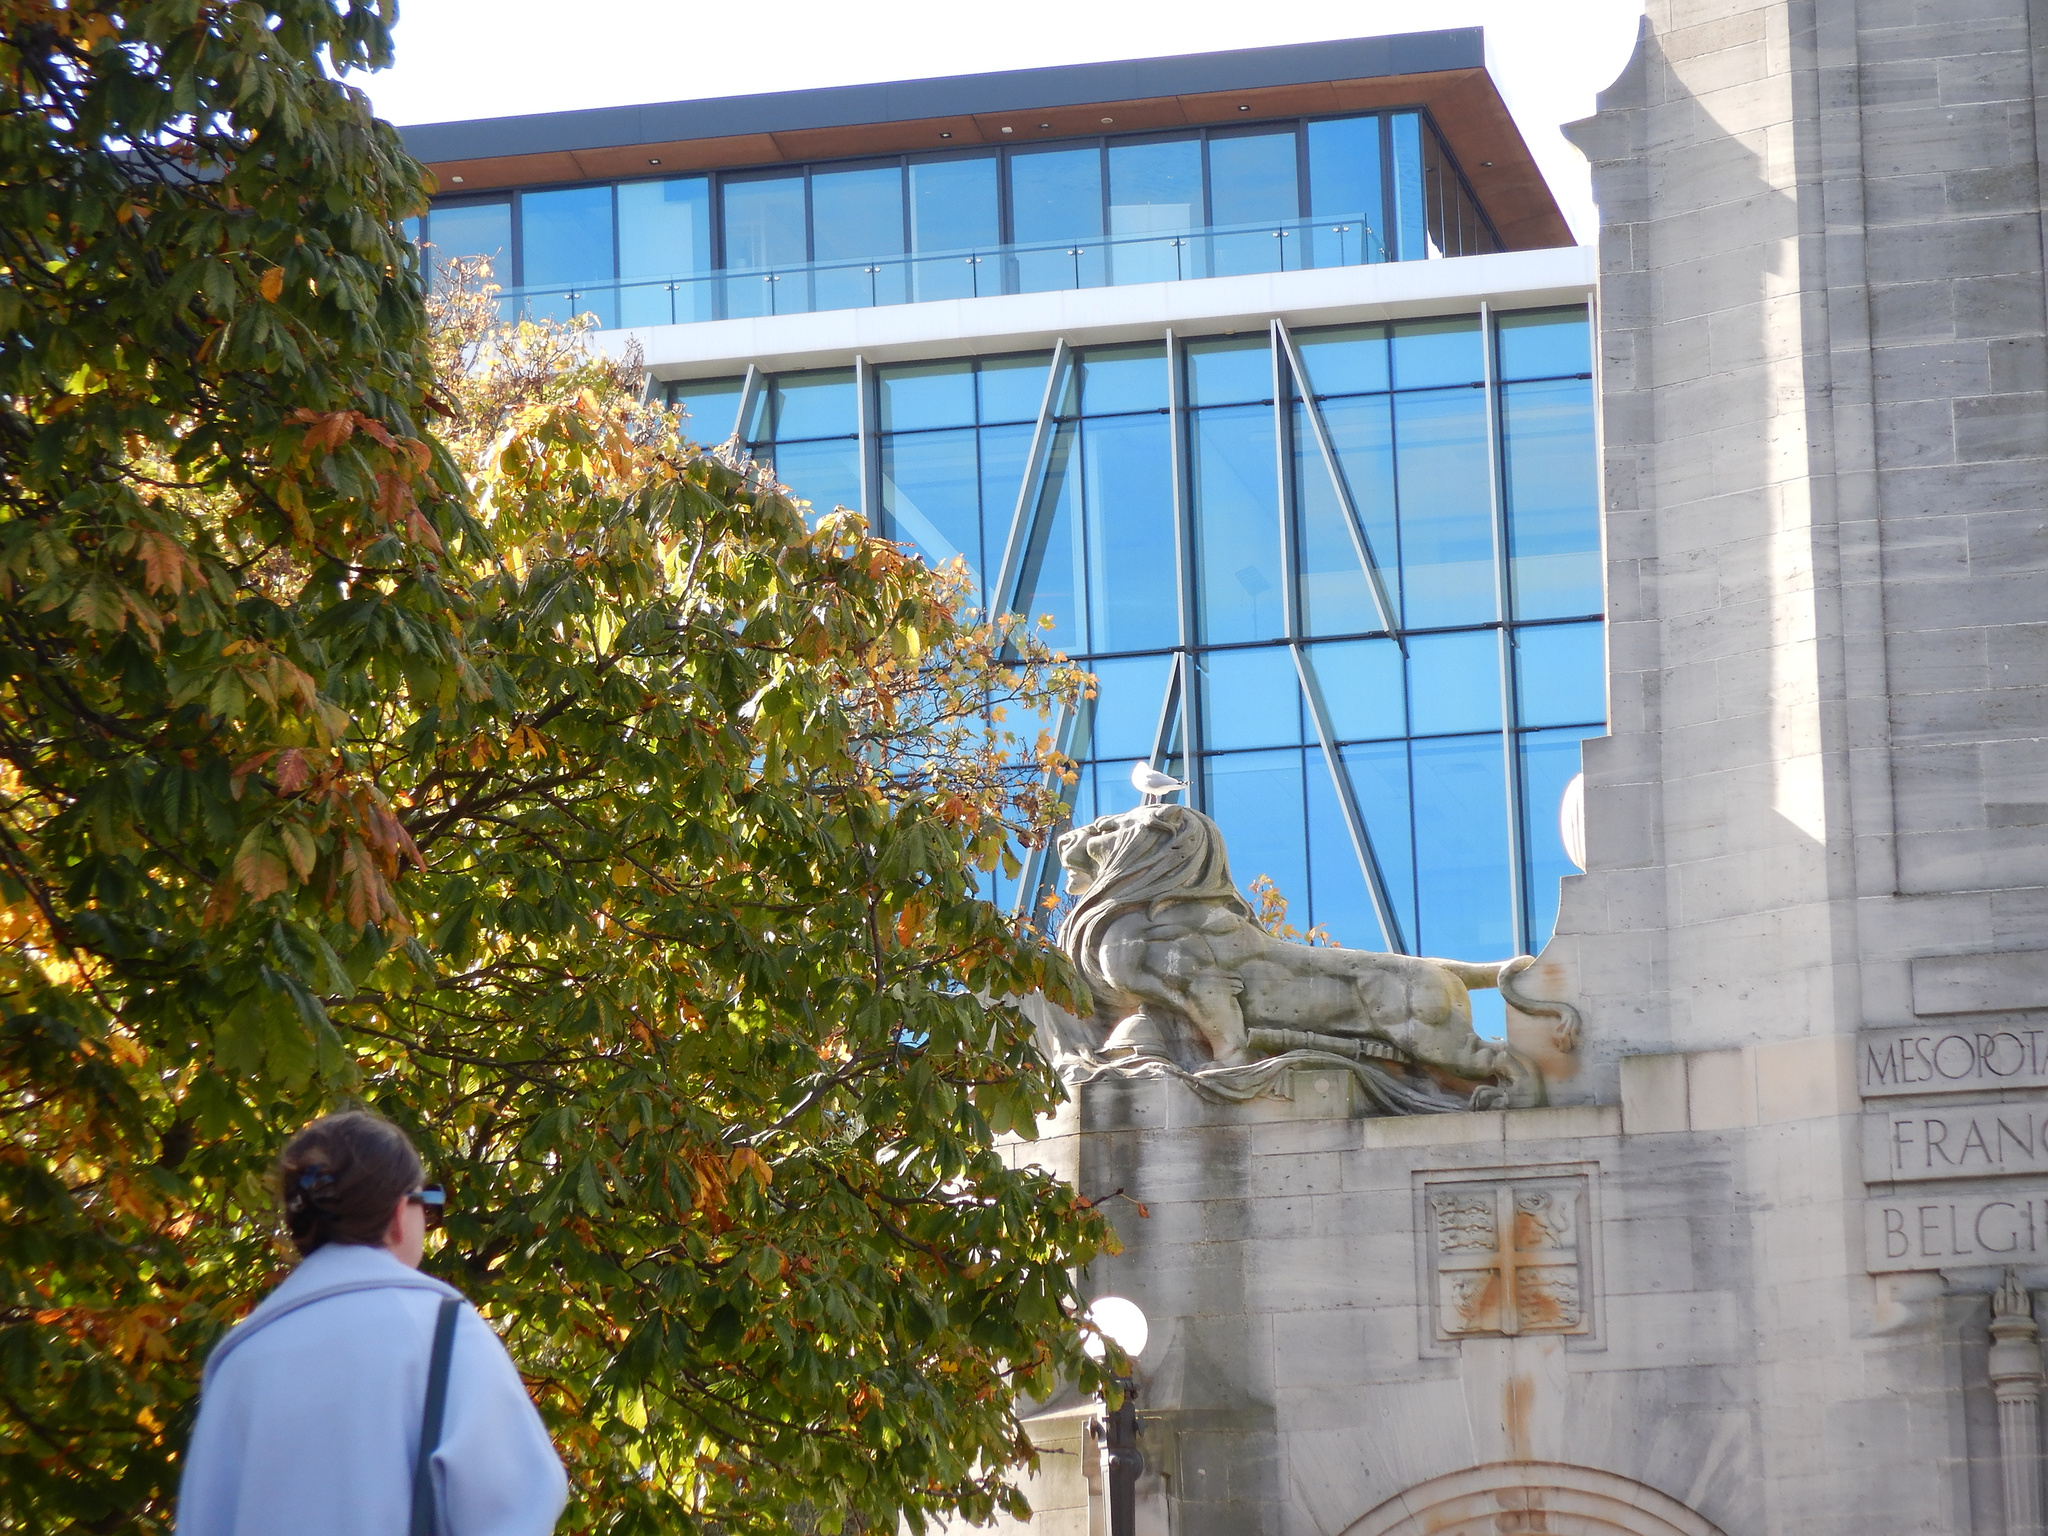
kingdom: Animalia
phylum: Chordata
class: Aves
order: Charadriiformes
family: Laridae
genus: Chroicocephalus
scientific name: Chroicocephalus novaehollandiae
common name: Silver gull
